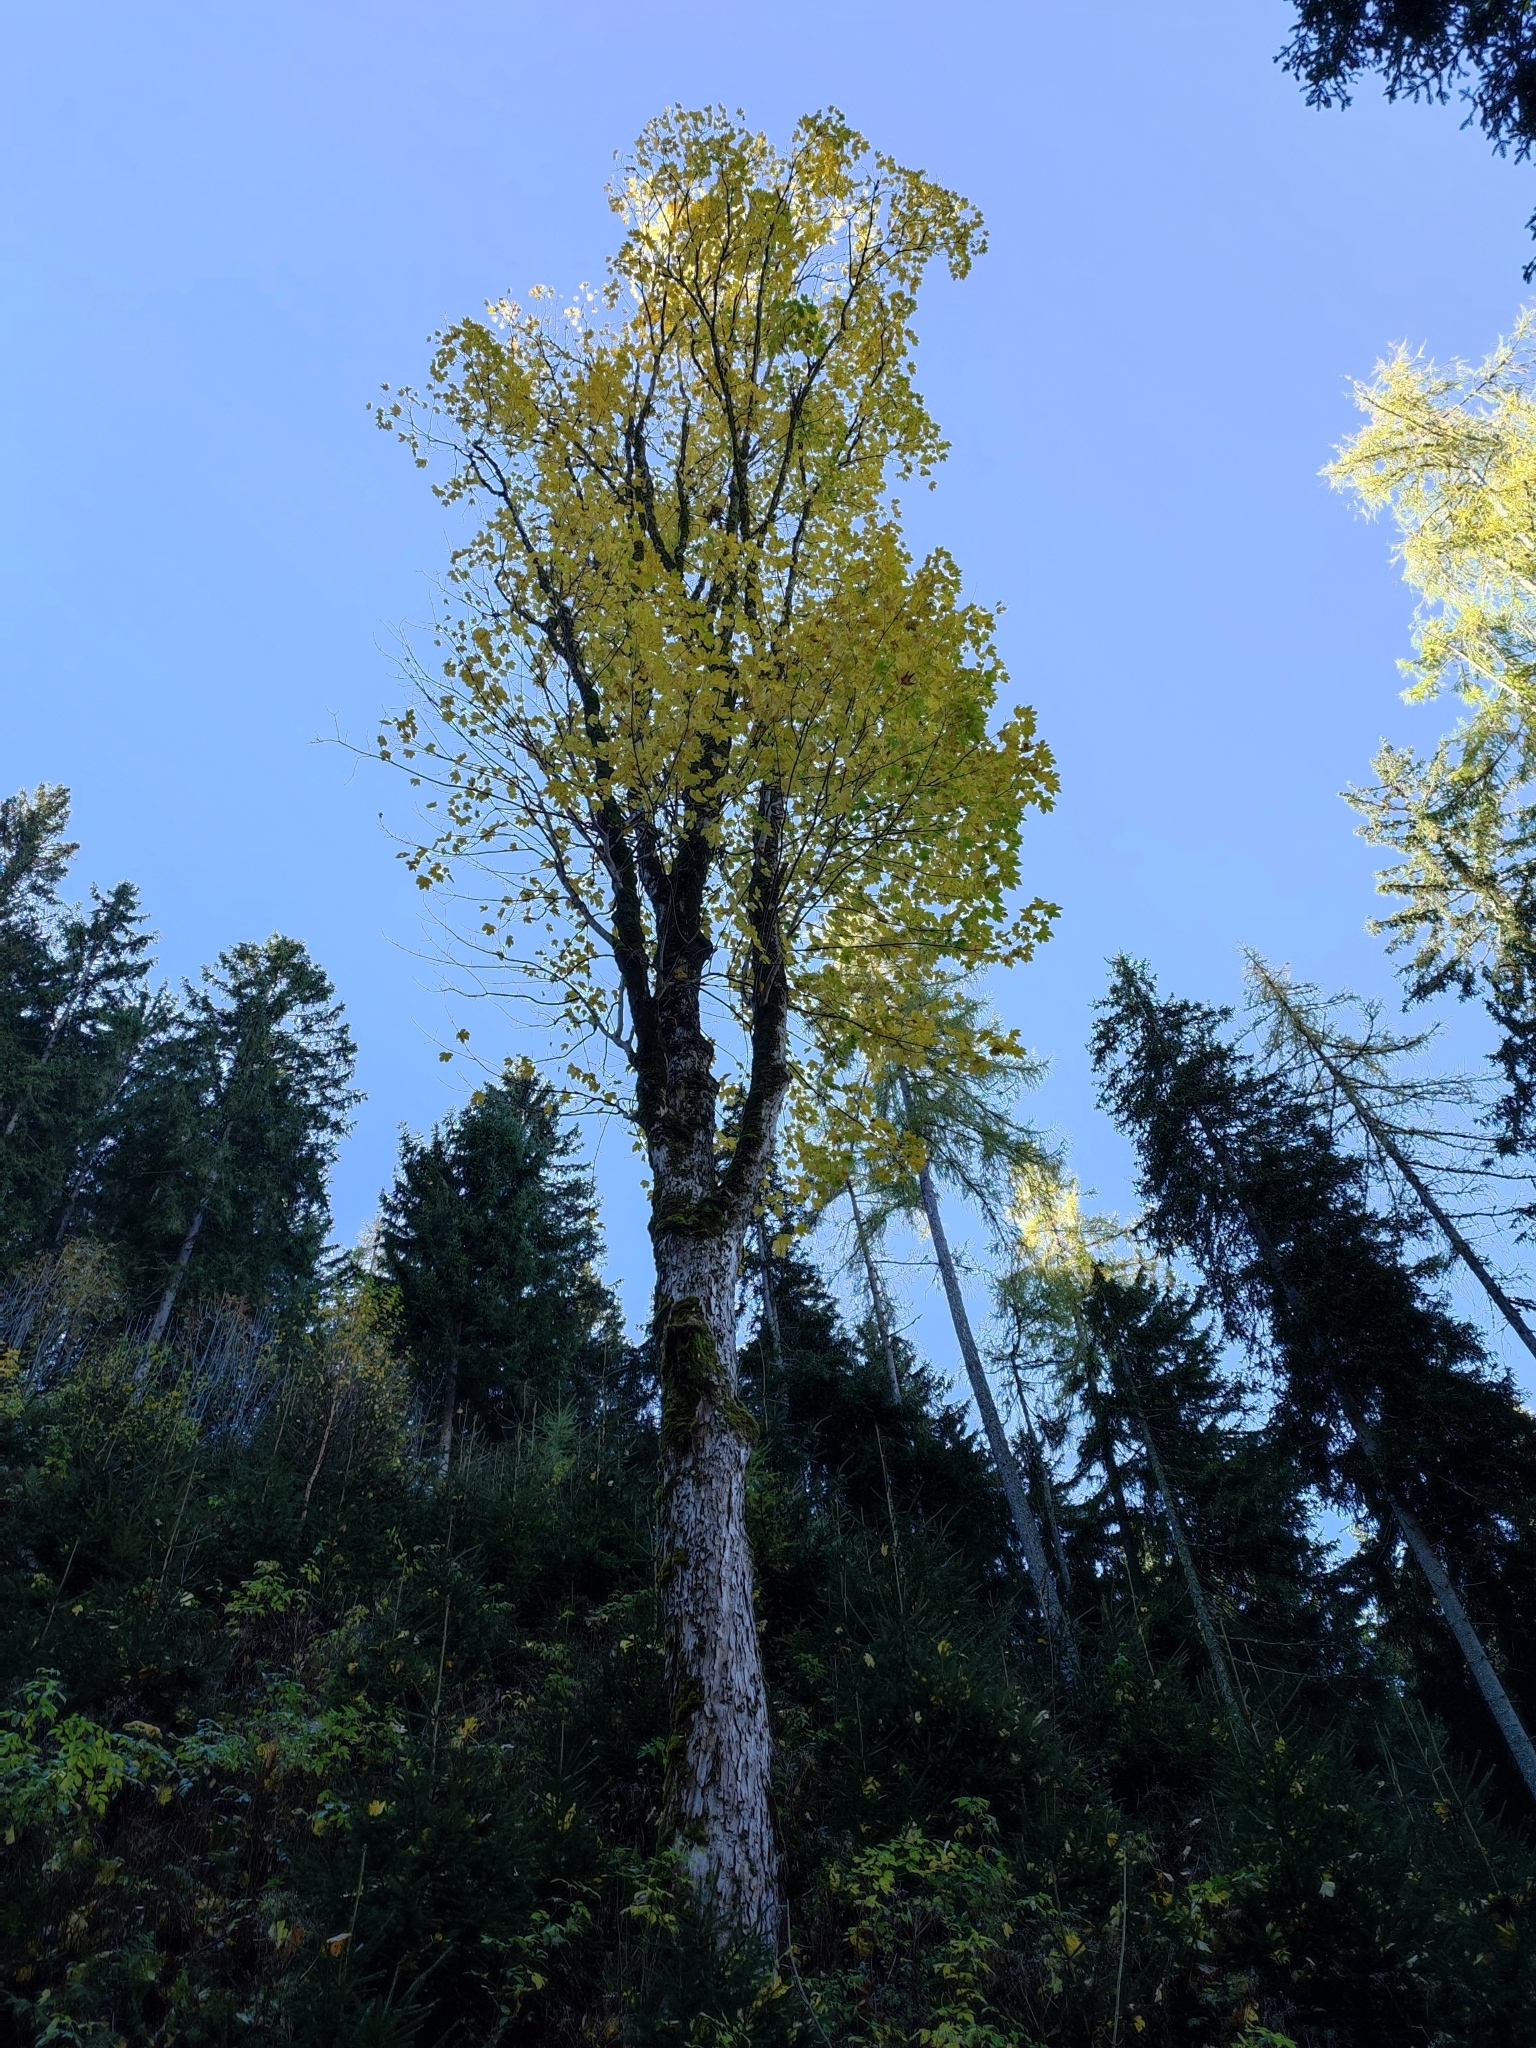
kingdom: Plantae
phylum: Tracheophyta
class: Magnoliopsida
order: Sapindales
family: Sapindaceae
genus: Acer
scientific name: Acer pseudoplatanus
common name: Sycamore
